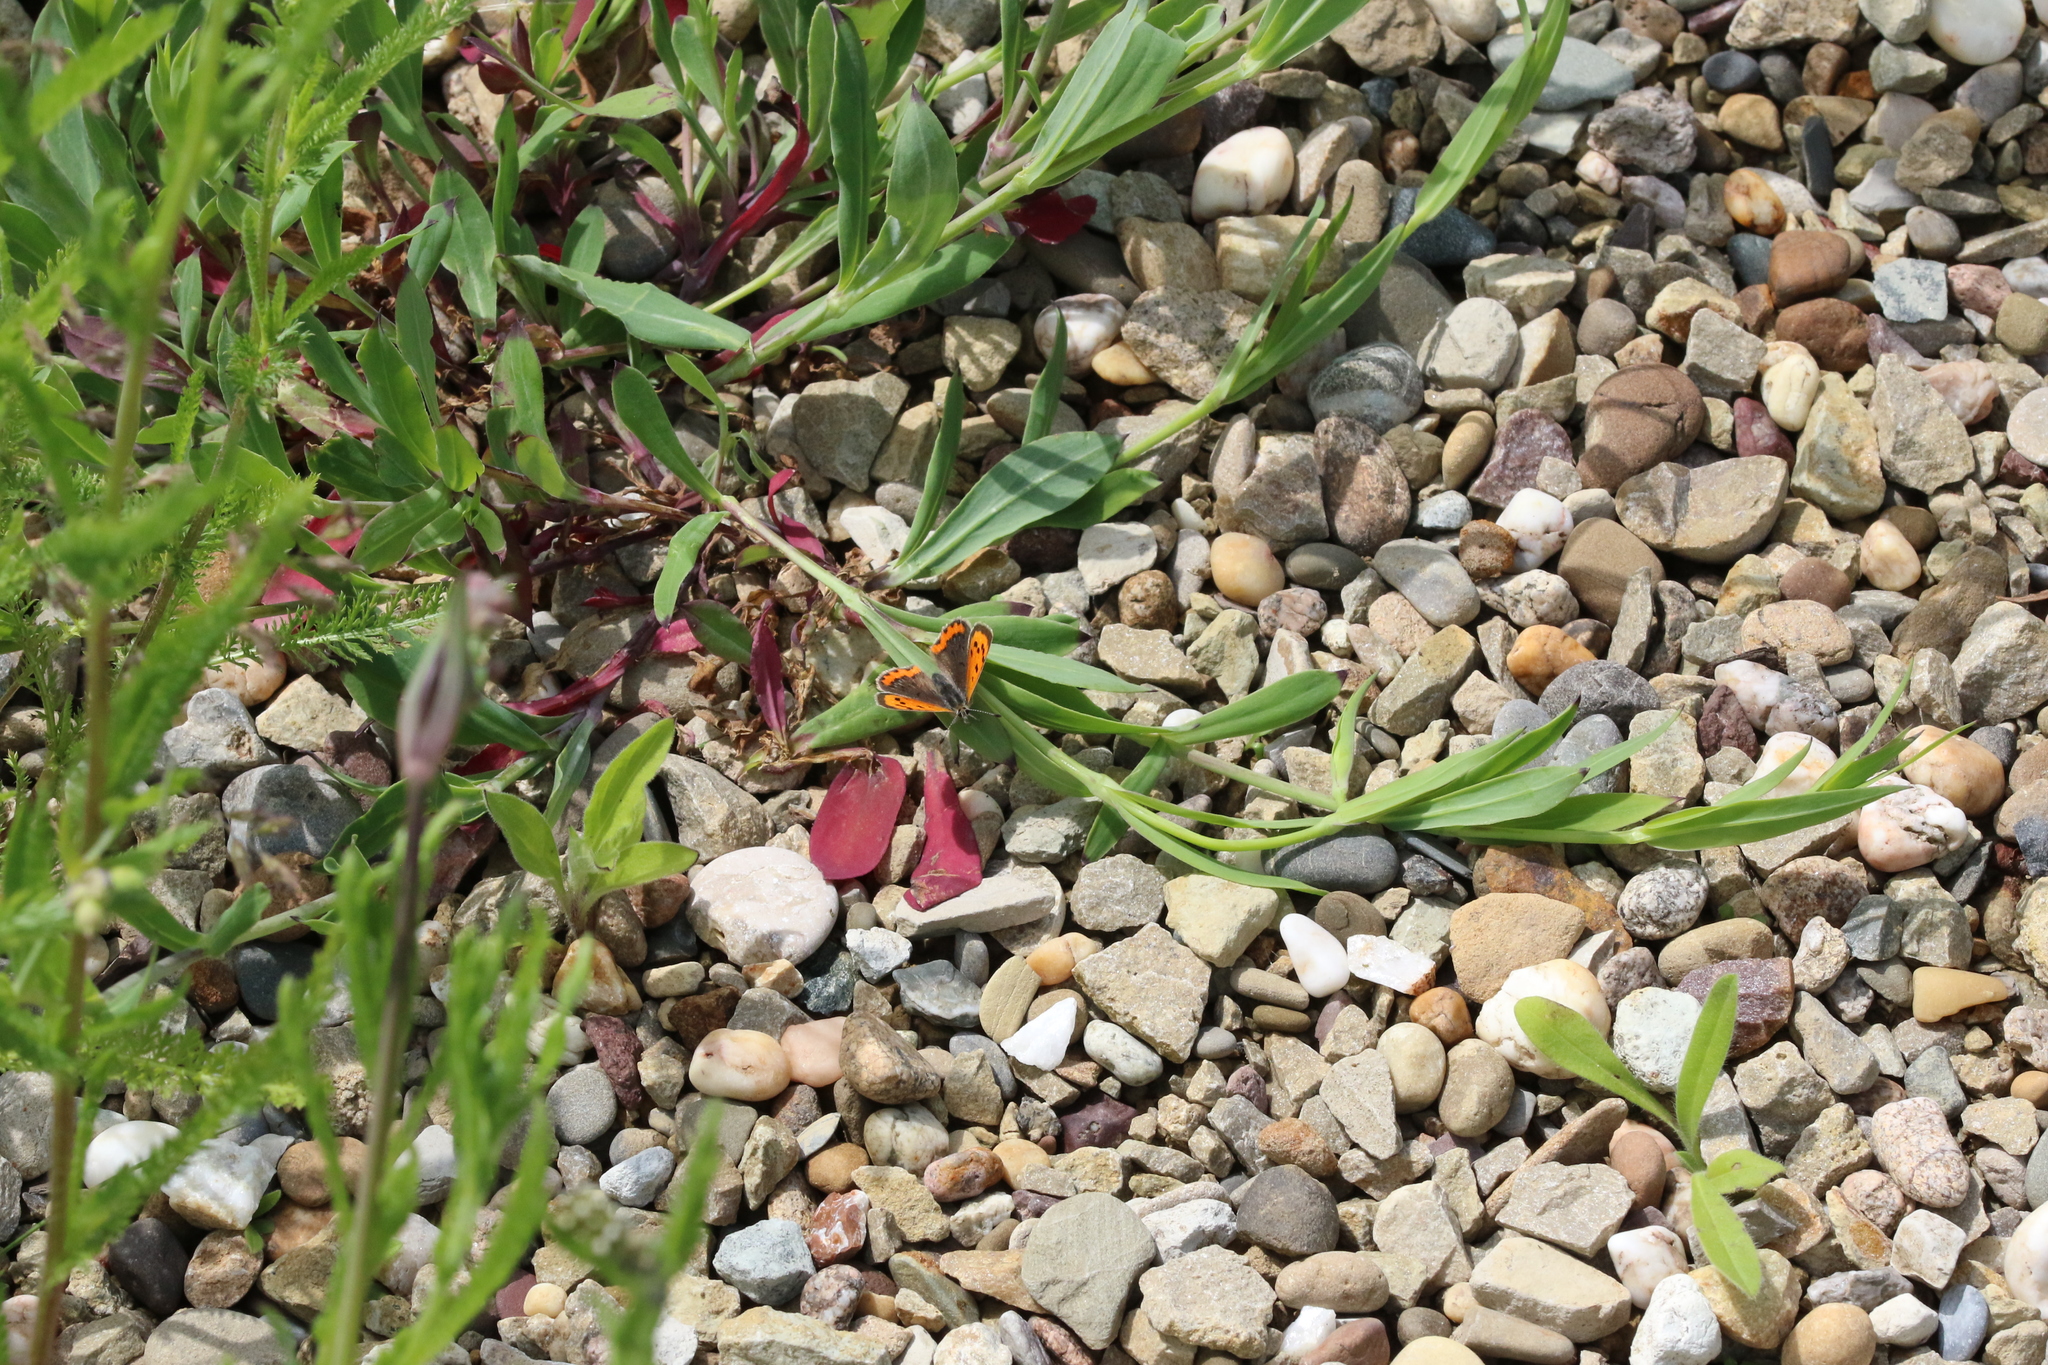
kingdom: Animalia
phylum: Arthropoda
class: Insecta
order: Lepidoptera
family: Lycaenidae
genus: Lycaena
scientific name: Lycaena phlaeas
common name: Small copper
